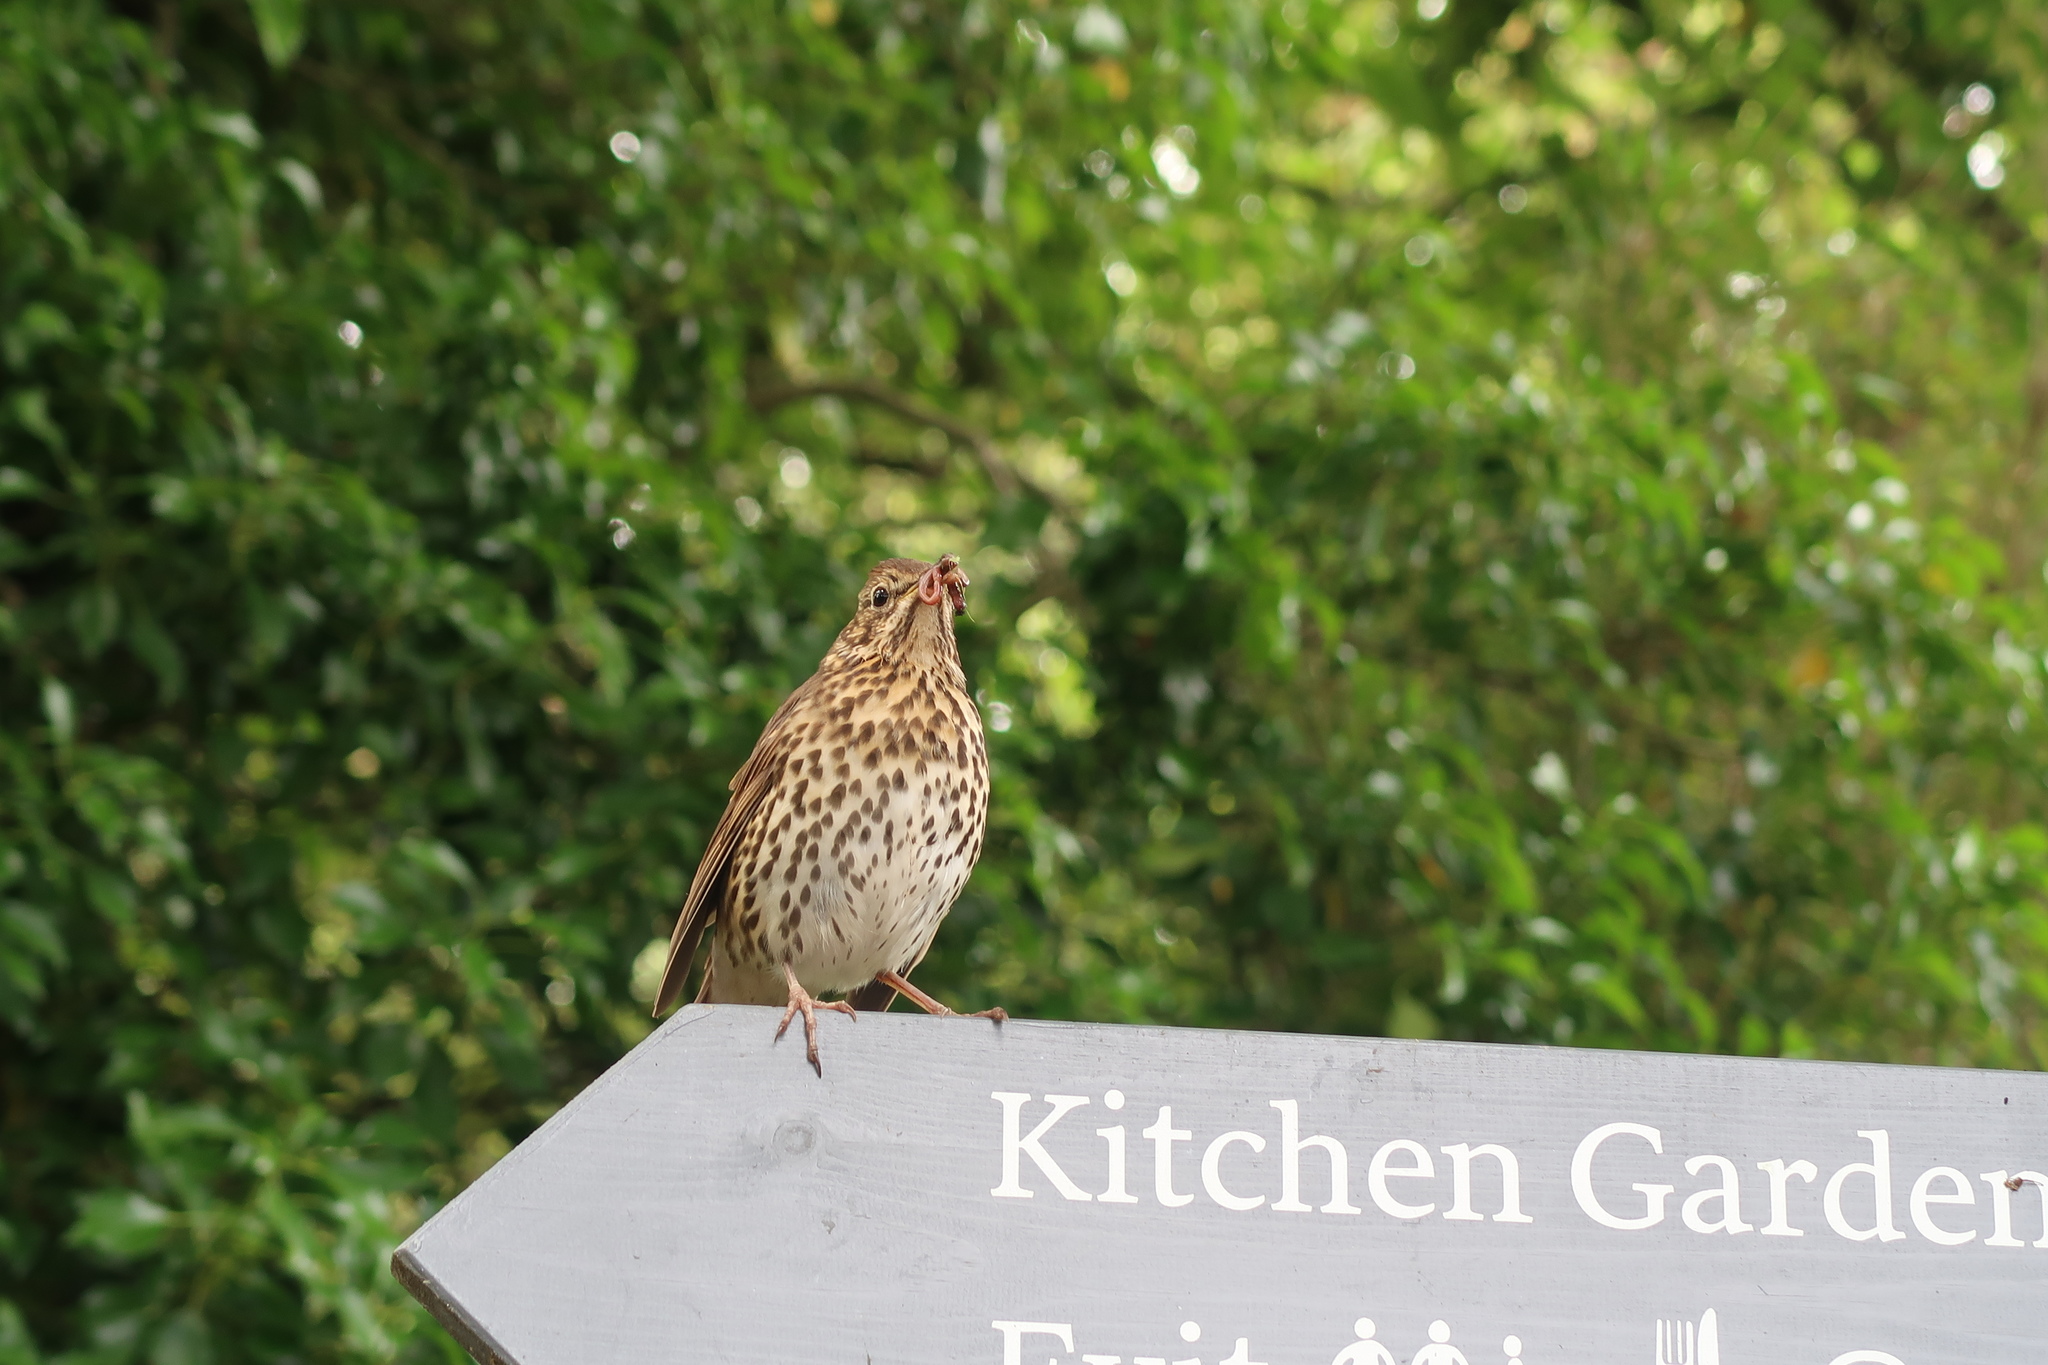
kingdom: Animalia
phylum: Chordata
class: Aves
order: Passeriformes
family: Turdidae
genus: Turdus
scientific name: Turdus philomelos
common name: Song thrush
